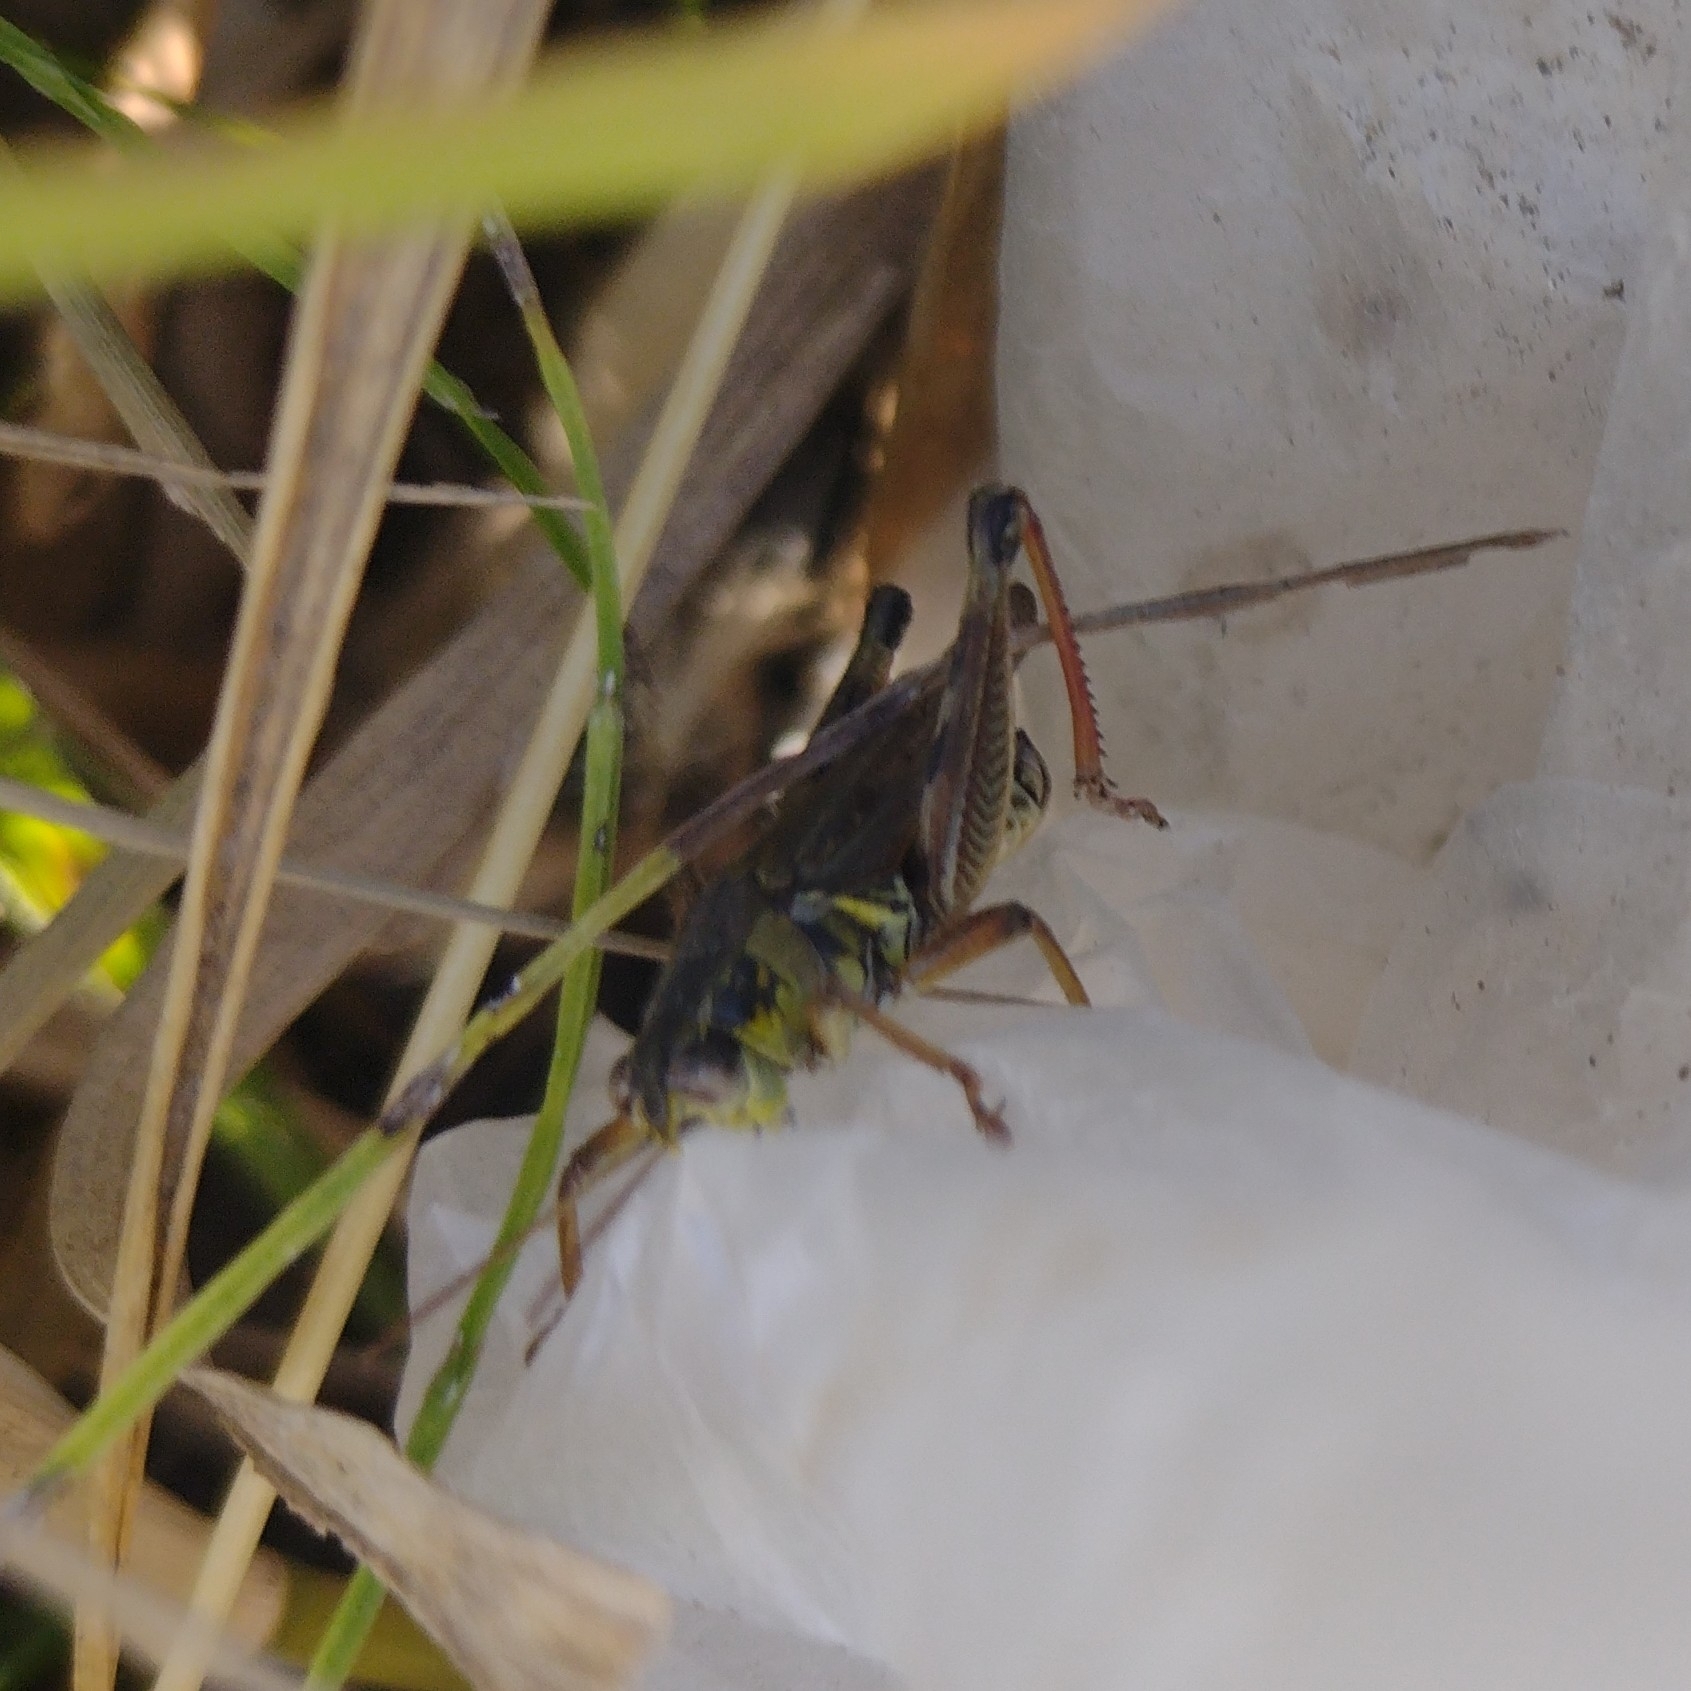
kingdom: Animalia
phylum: Arthropoda
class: Insecta
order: Orthoptera
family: Acrididae
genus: Melanoplus
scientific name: Melanoplus femurrubrum
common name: Red-legged grasshopper
